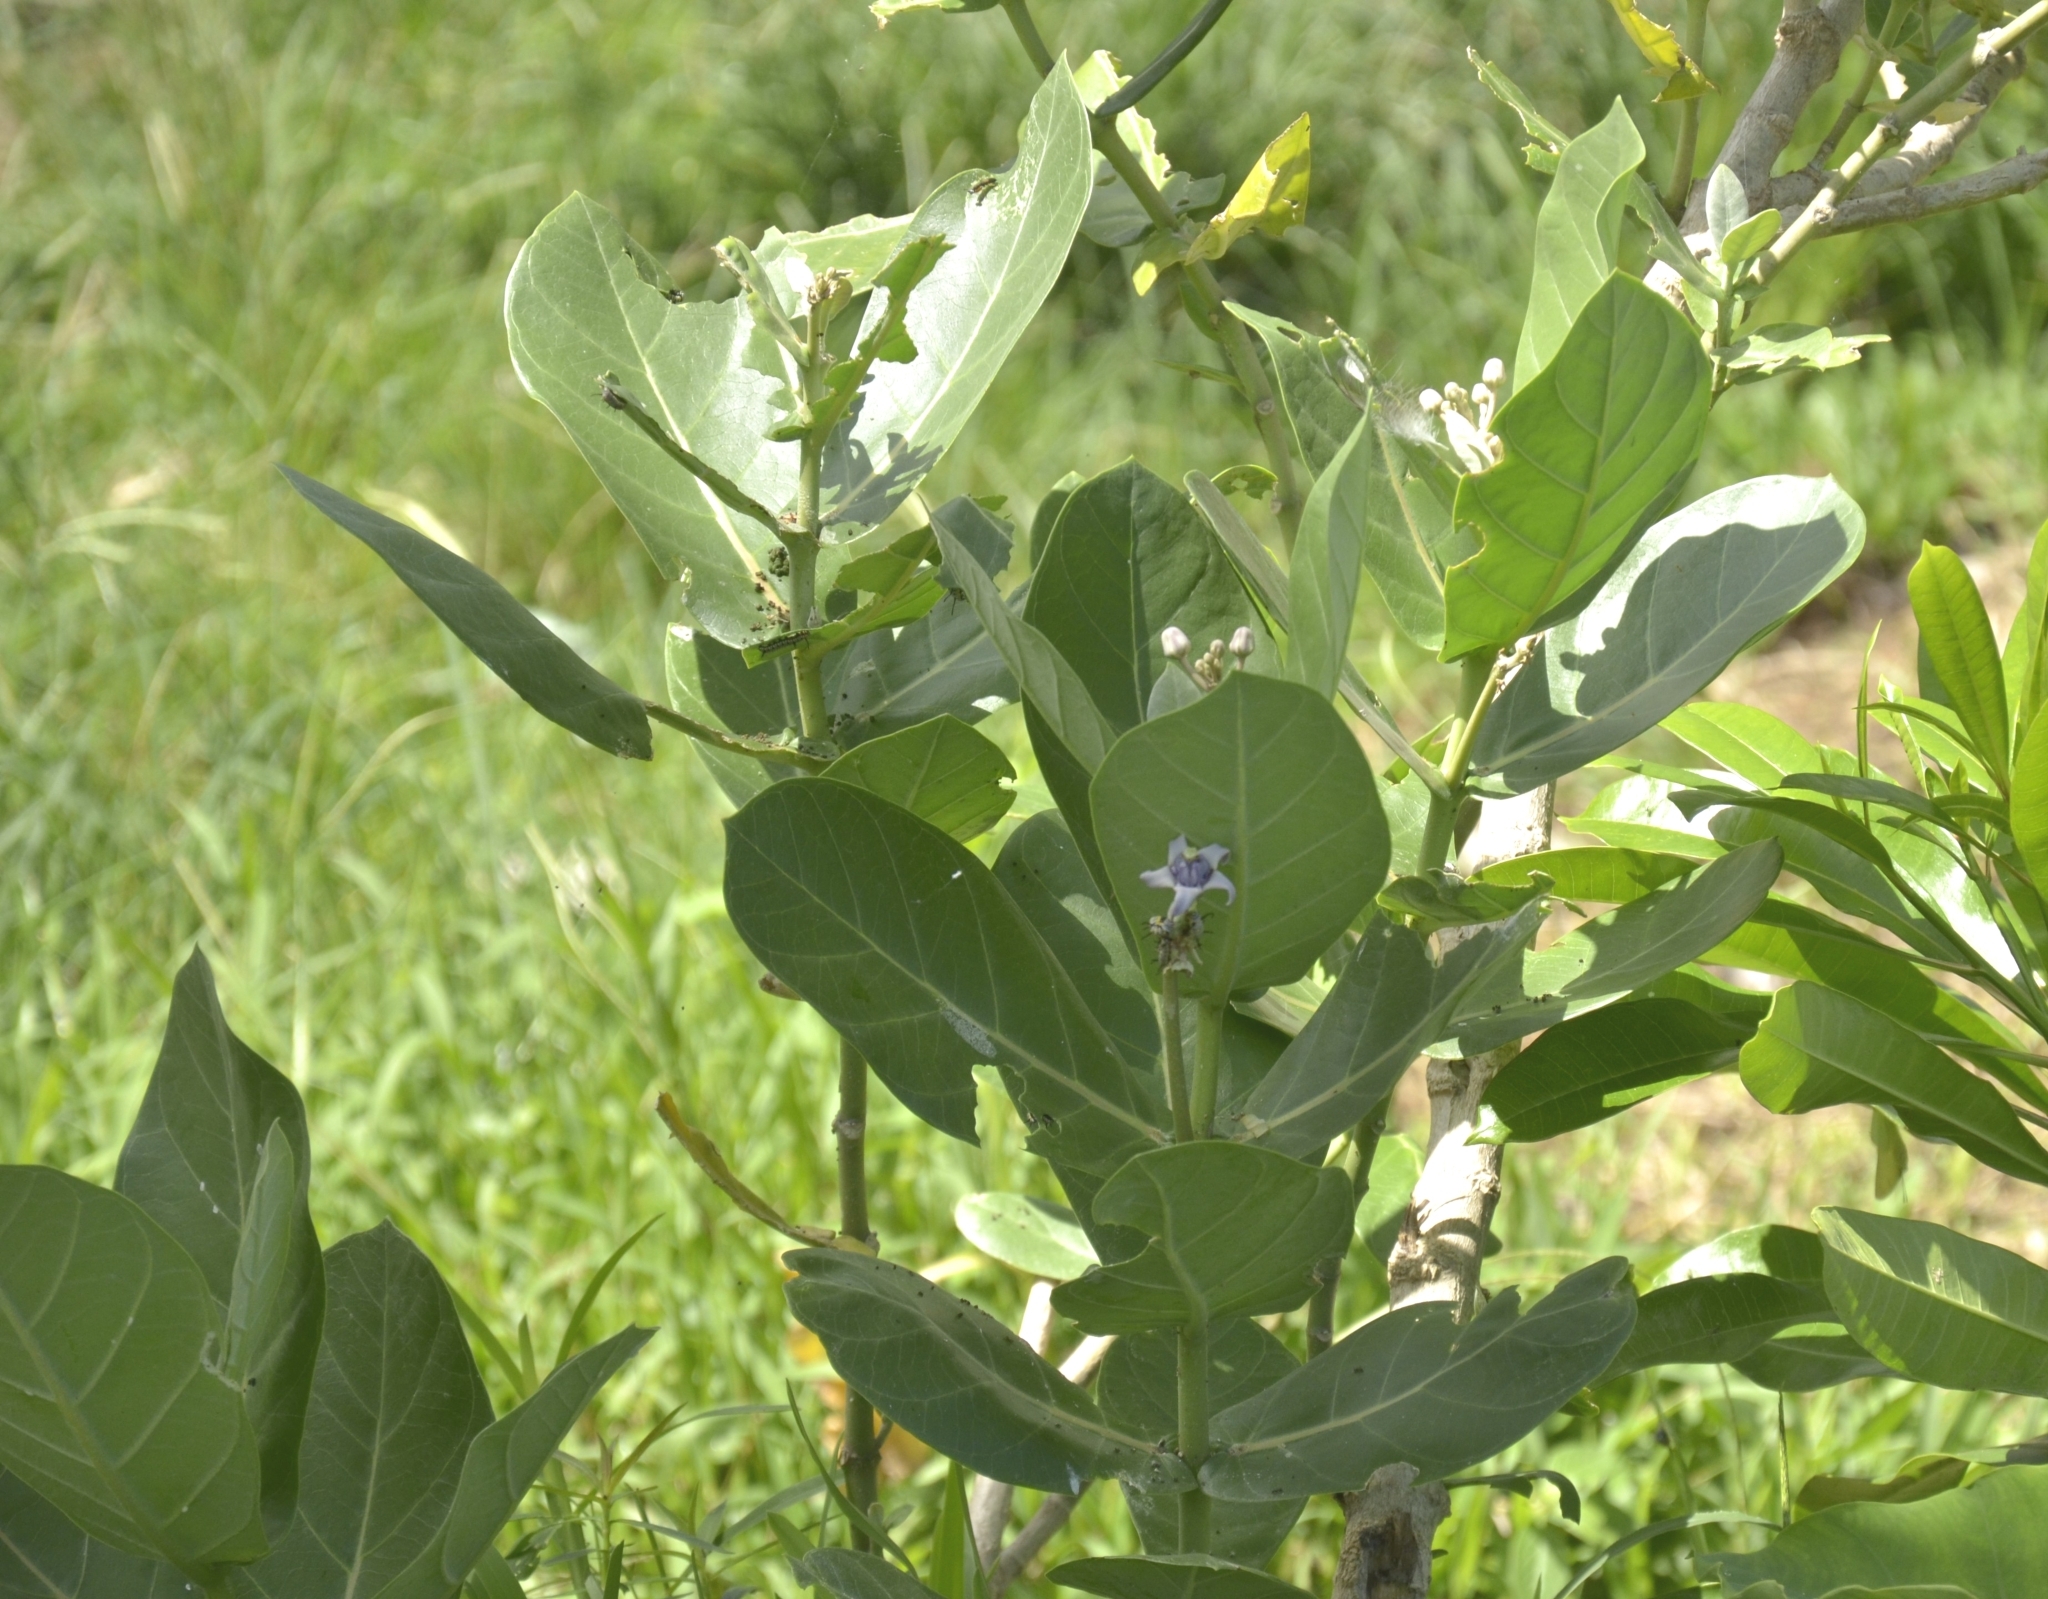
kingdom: Plantae
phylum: Tracheophyta
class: Magnoliopsida
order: Gentianales
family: Apocynaceae
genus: Calotropis
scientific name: Calotropis gigantea
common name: Crown flower
